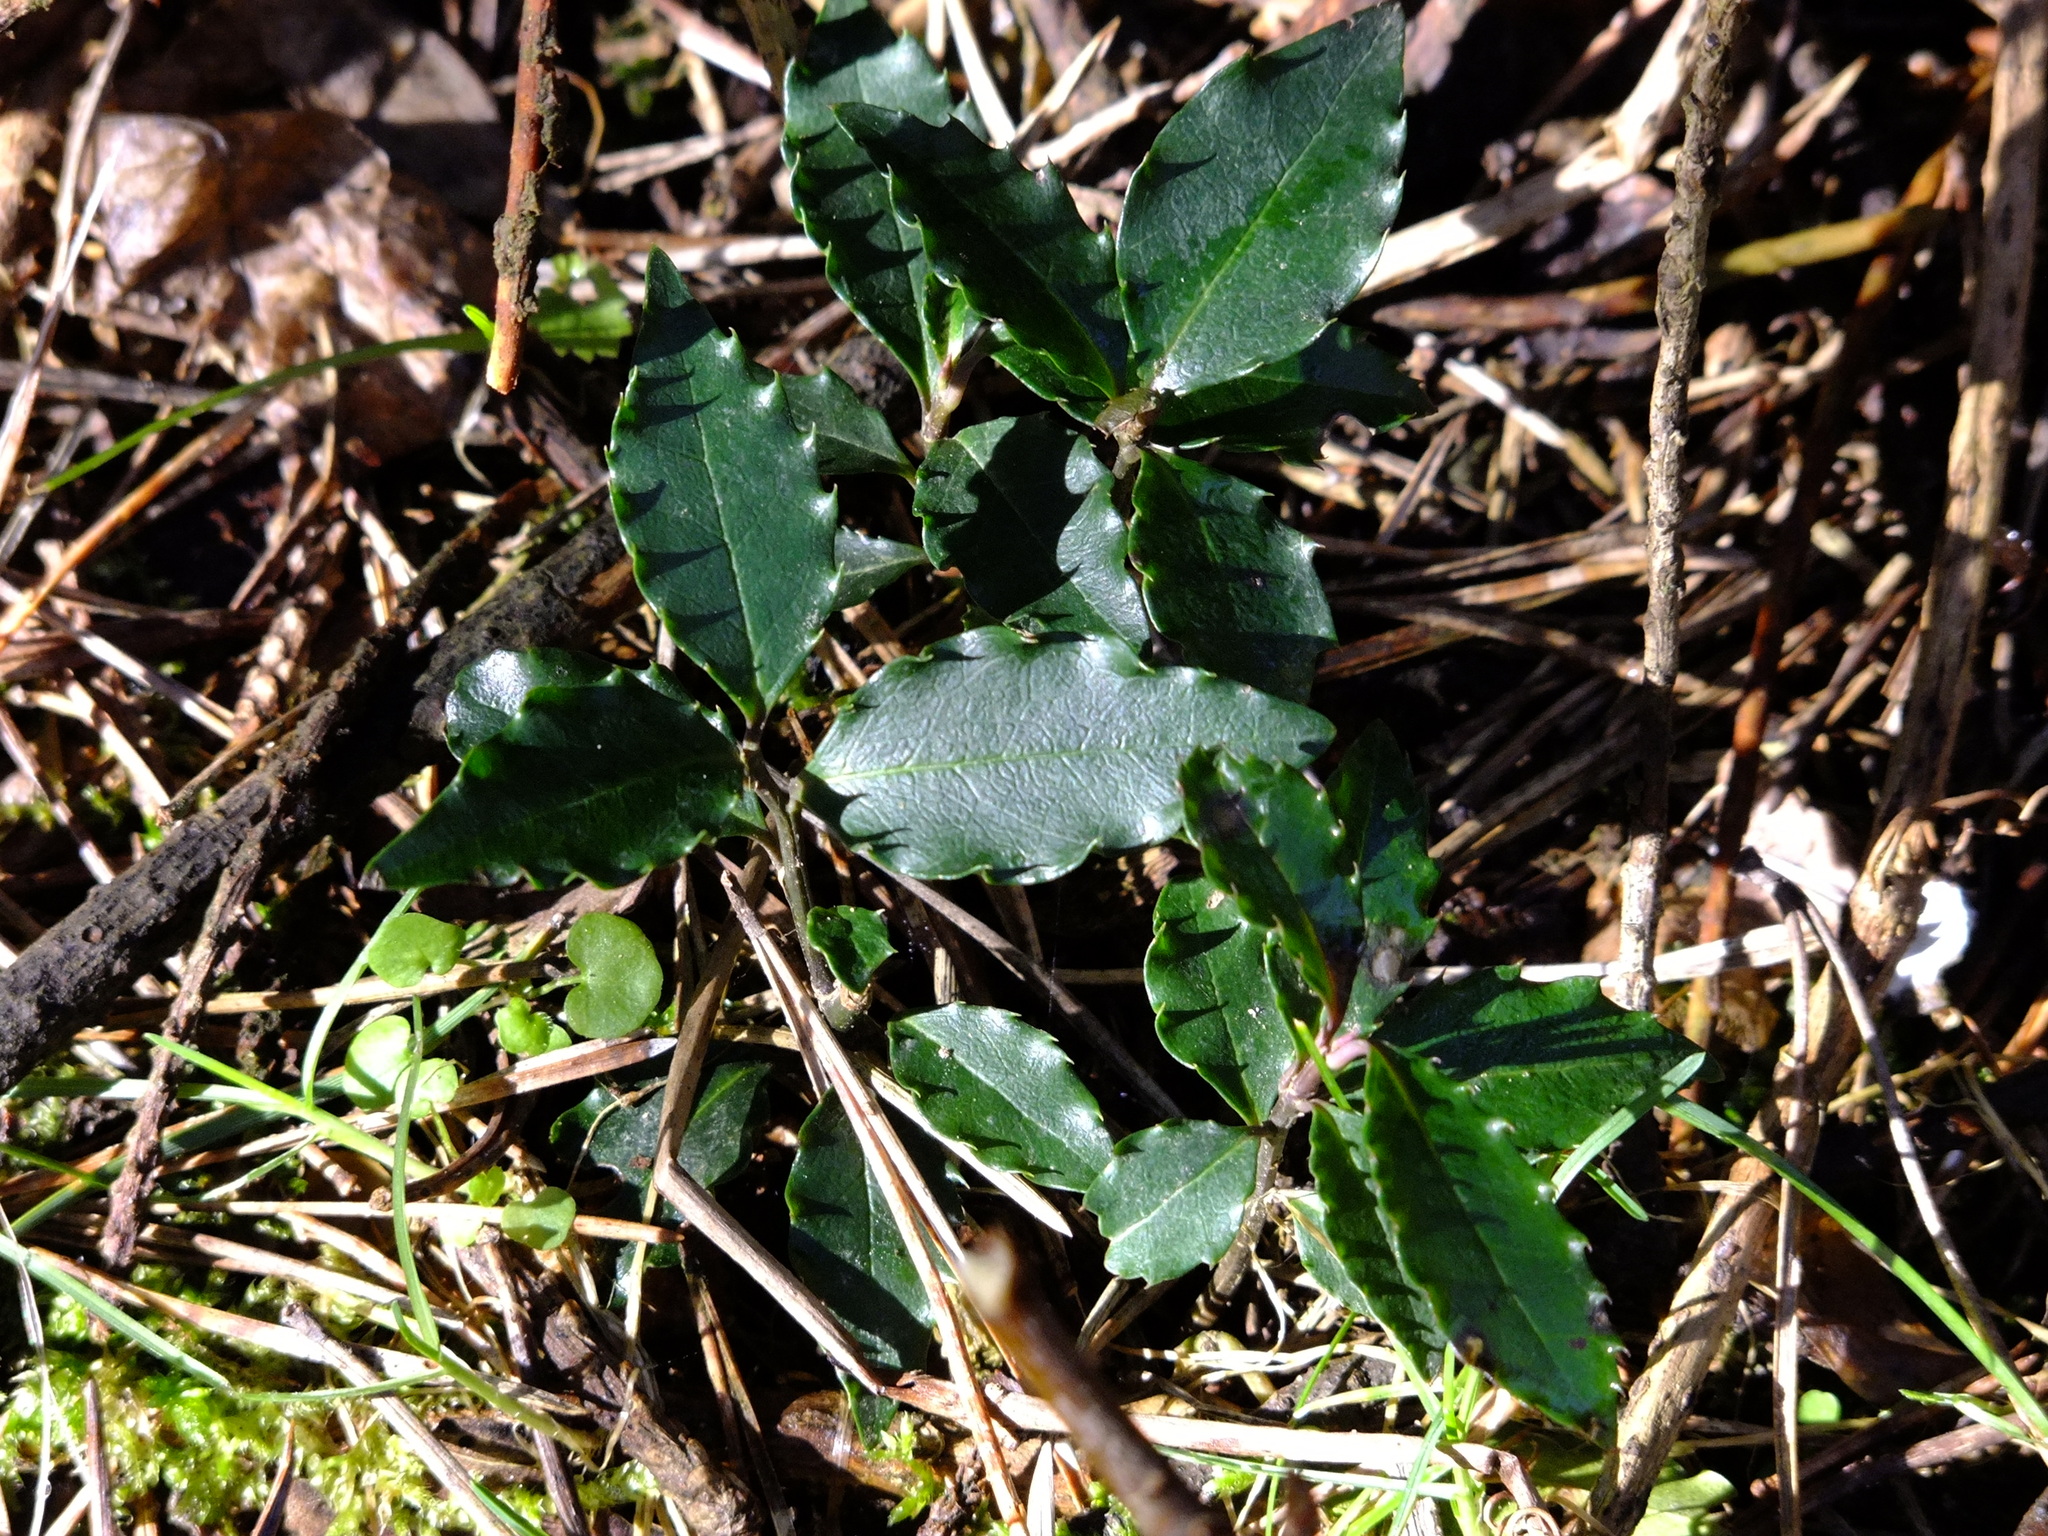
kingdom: Plantae
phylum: Tracheophyta
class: Magnoliopsida
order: Aquifoliales
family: Aquifoliaceae
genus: Ilex
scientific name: Ilex meserveae
